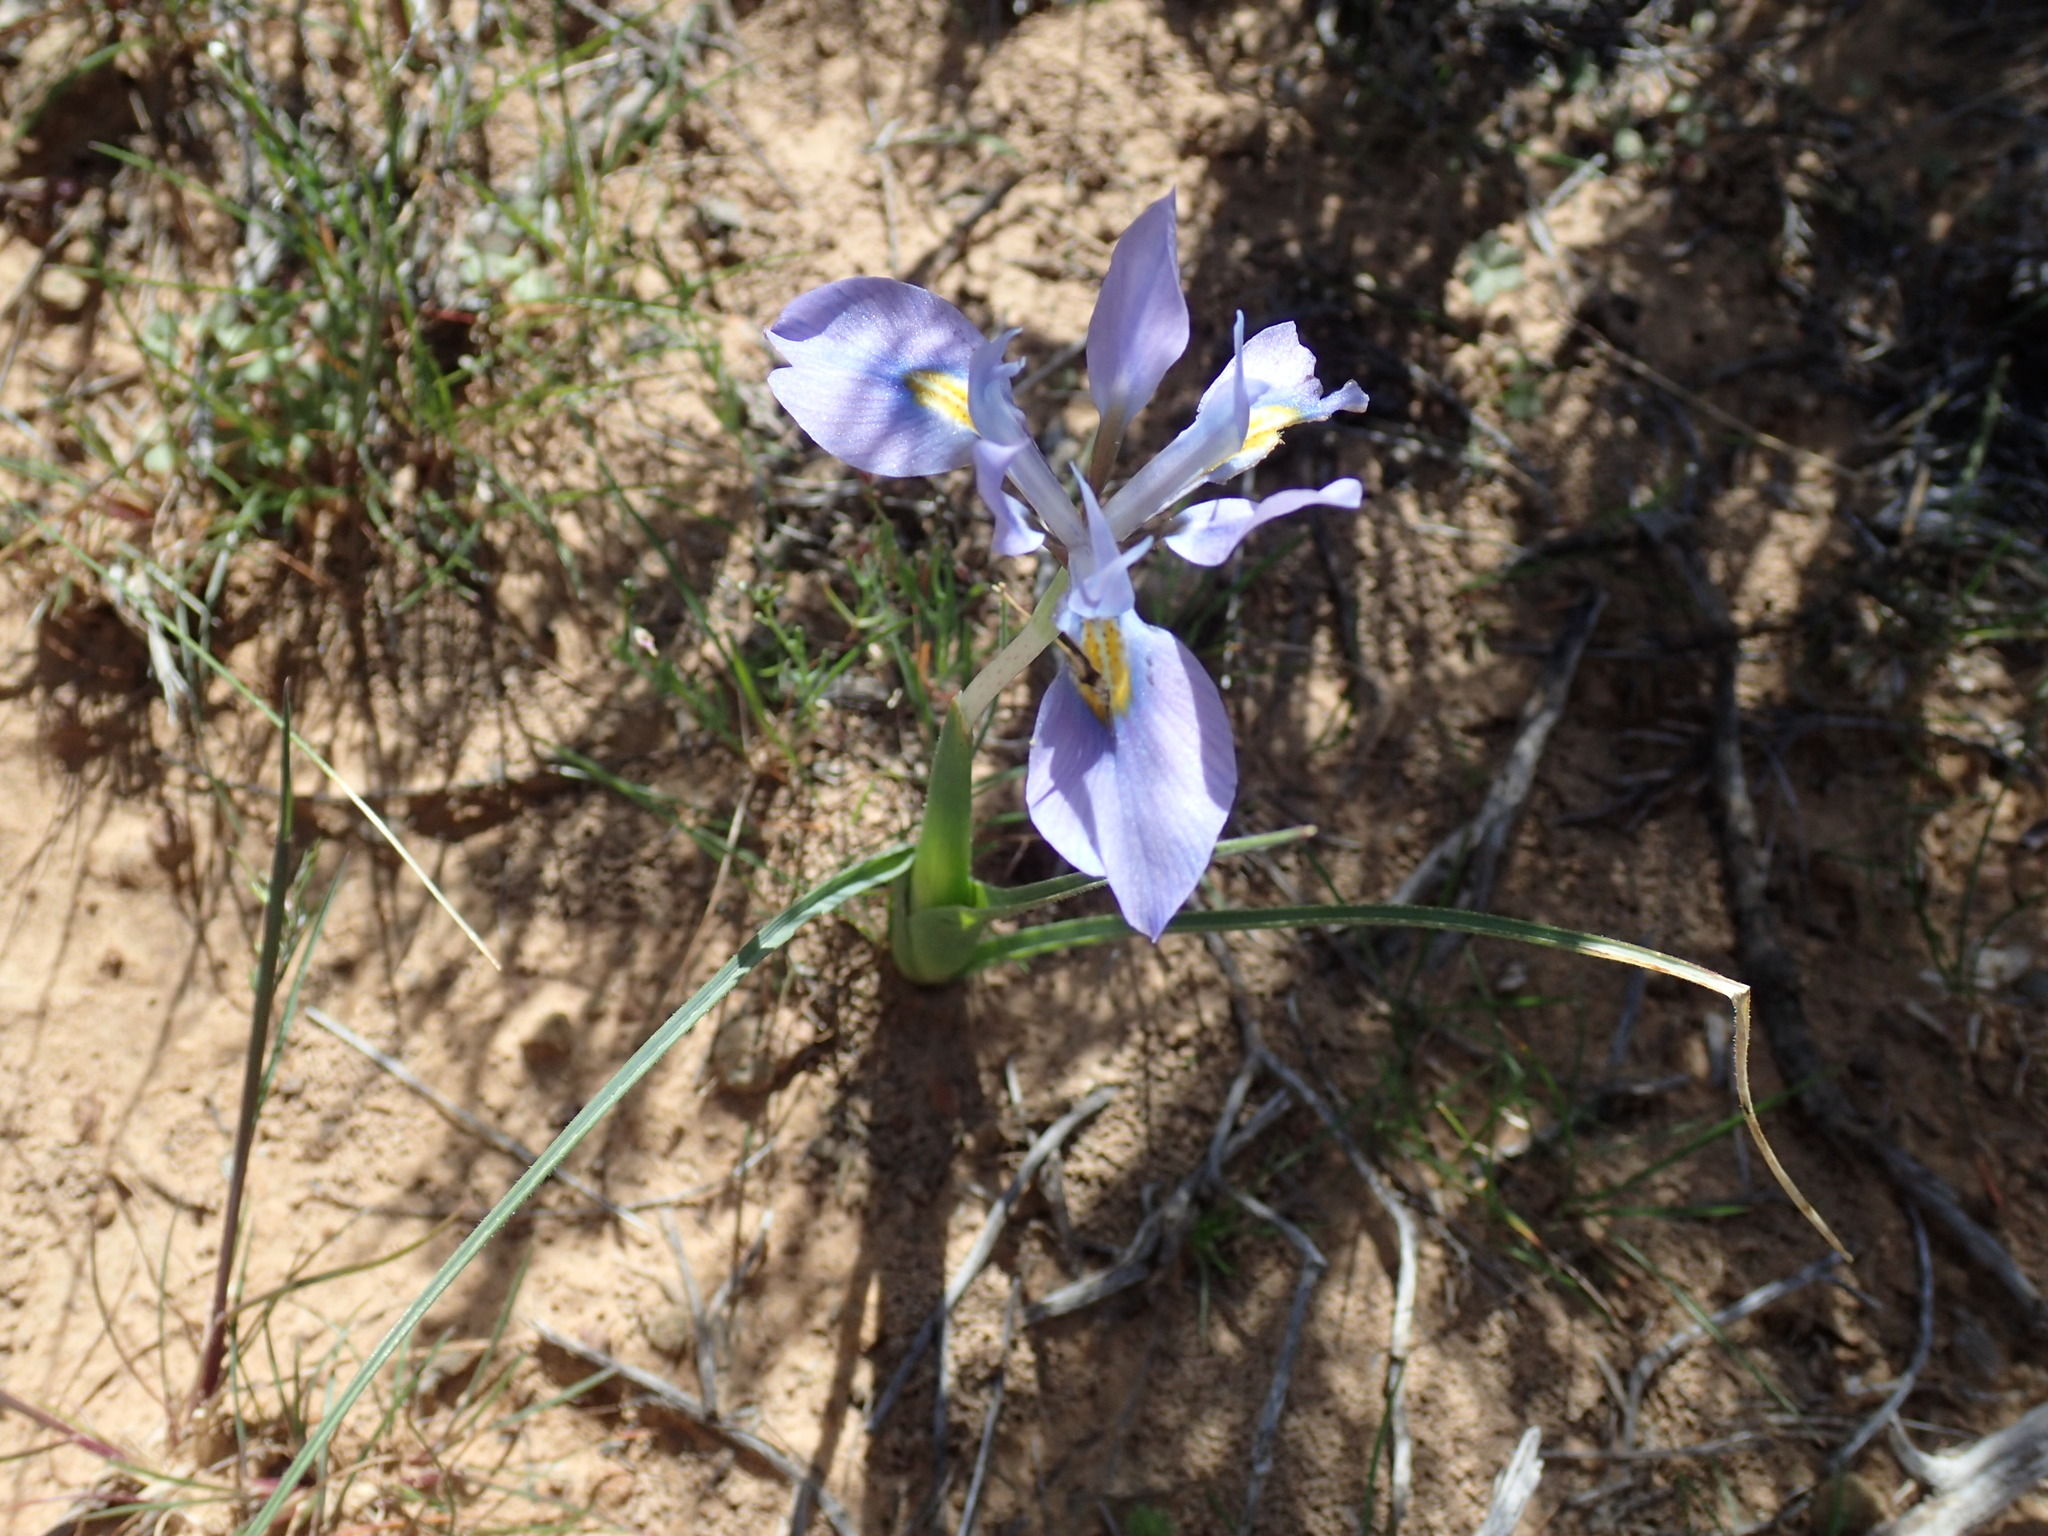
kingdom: Plantae
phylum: Tracheophyta
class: Liliopsida
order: Asparagales
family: Iridaceae
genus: Moraea
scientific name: Moraea ciliata
